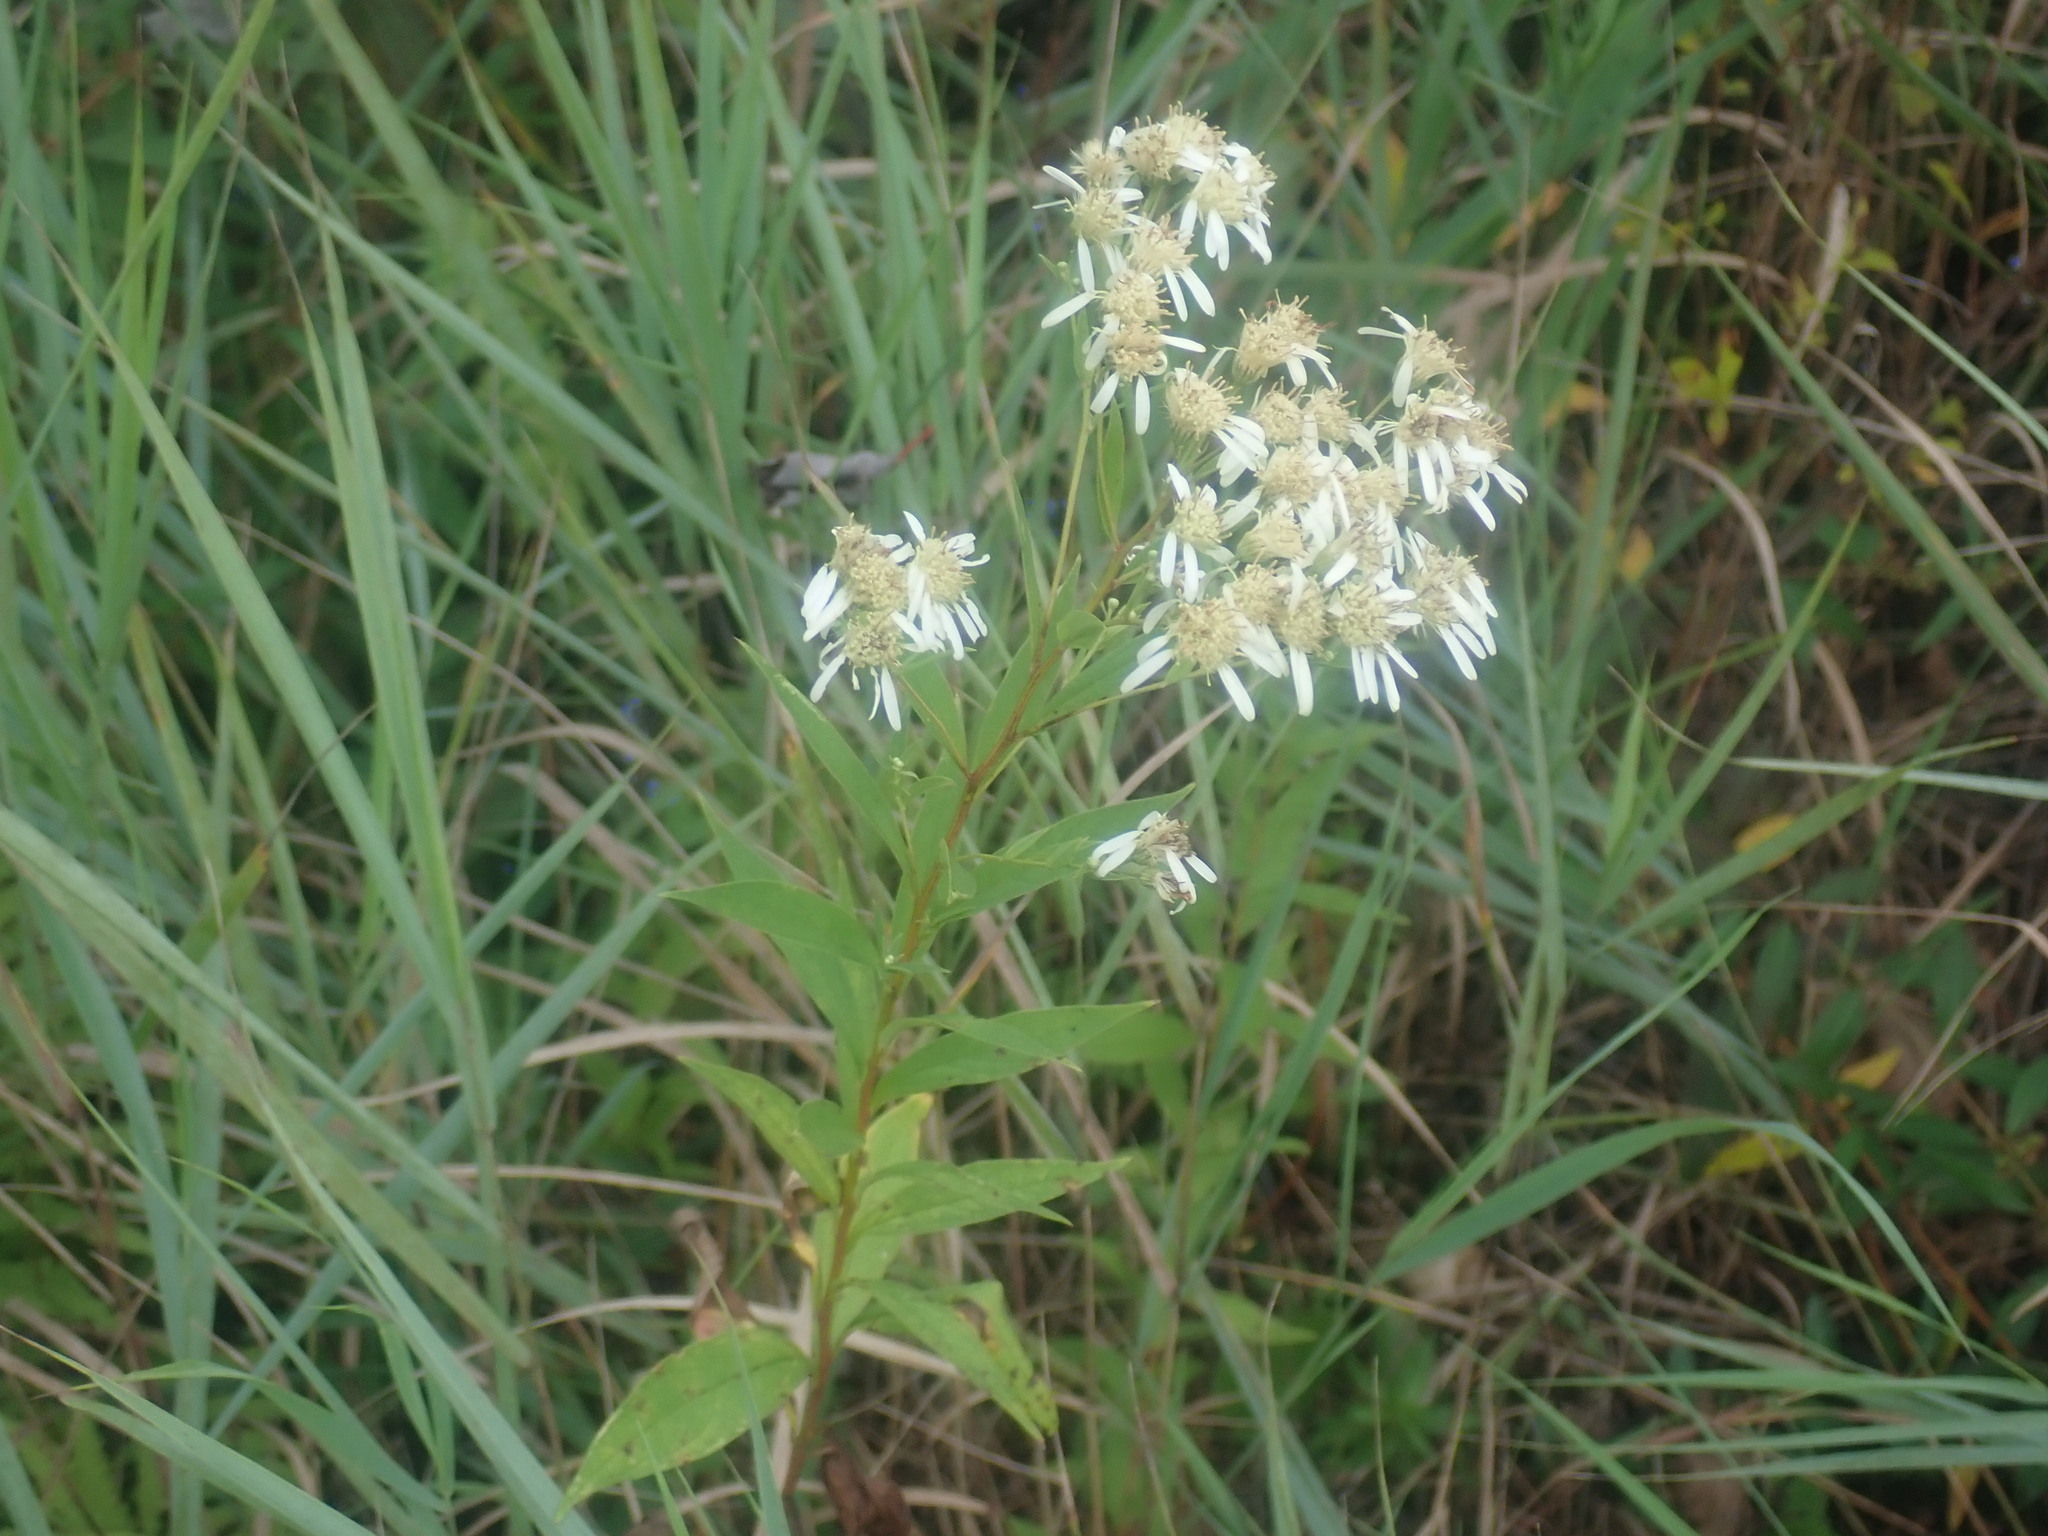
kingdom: Plantae
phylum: Tracheophyta
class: Magnoliopsida
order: Asterales
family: Asteraceae
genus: Doellingeria
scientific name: Doellingeria umbellata
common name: Flat-top white aster
